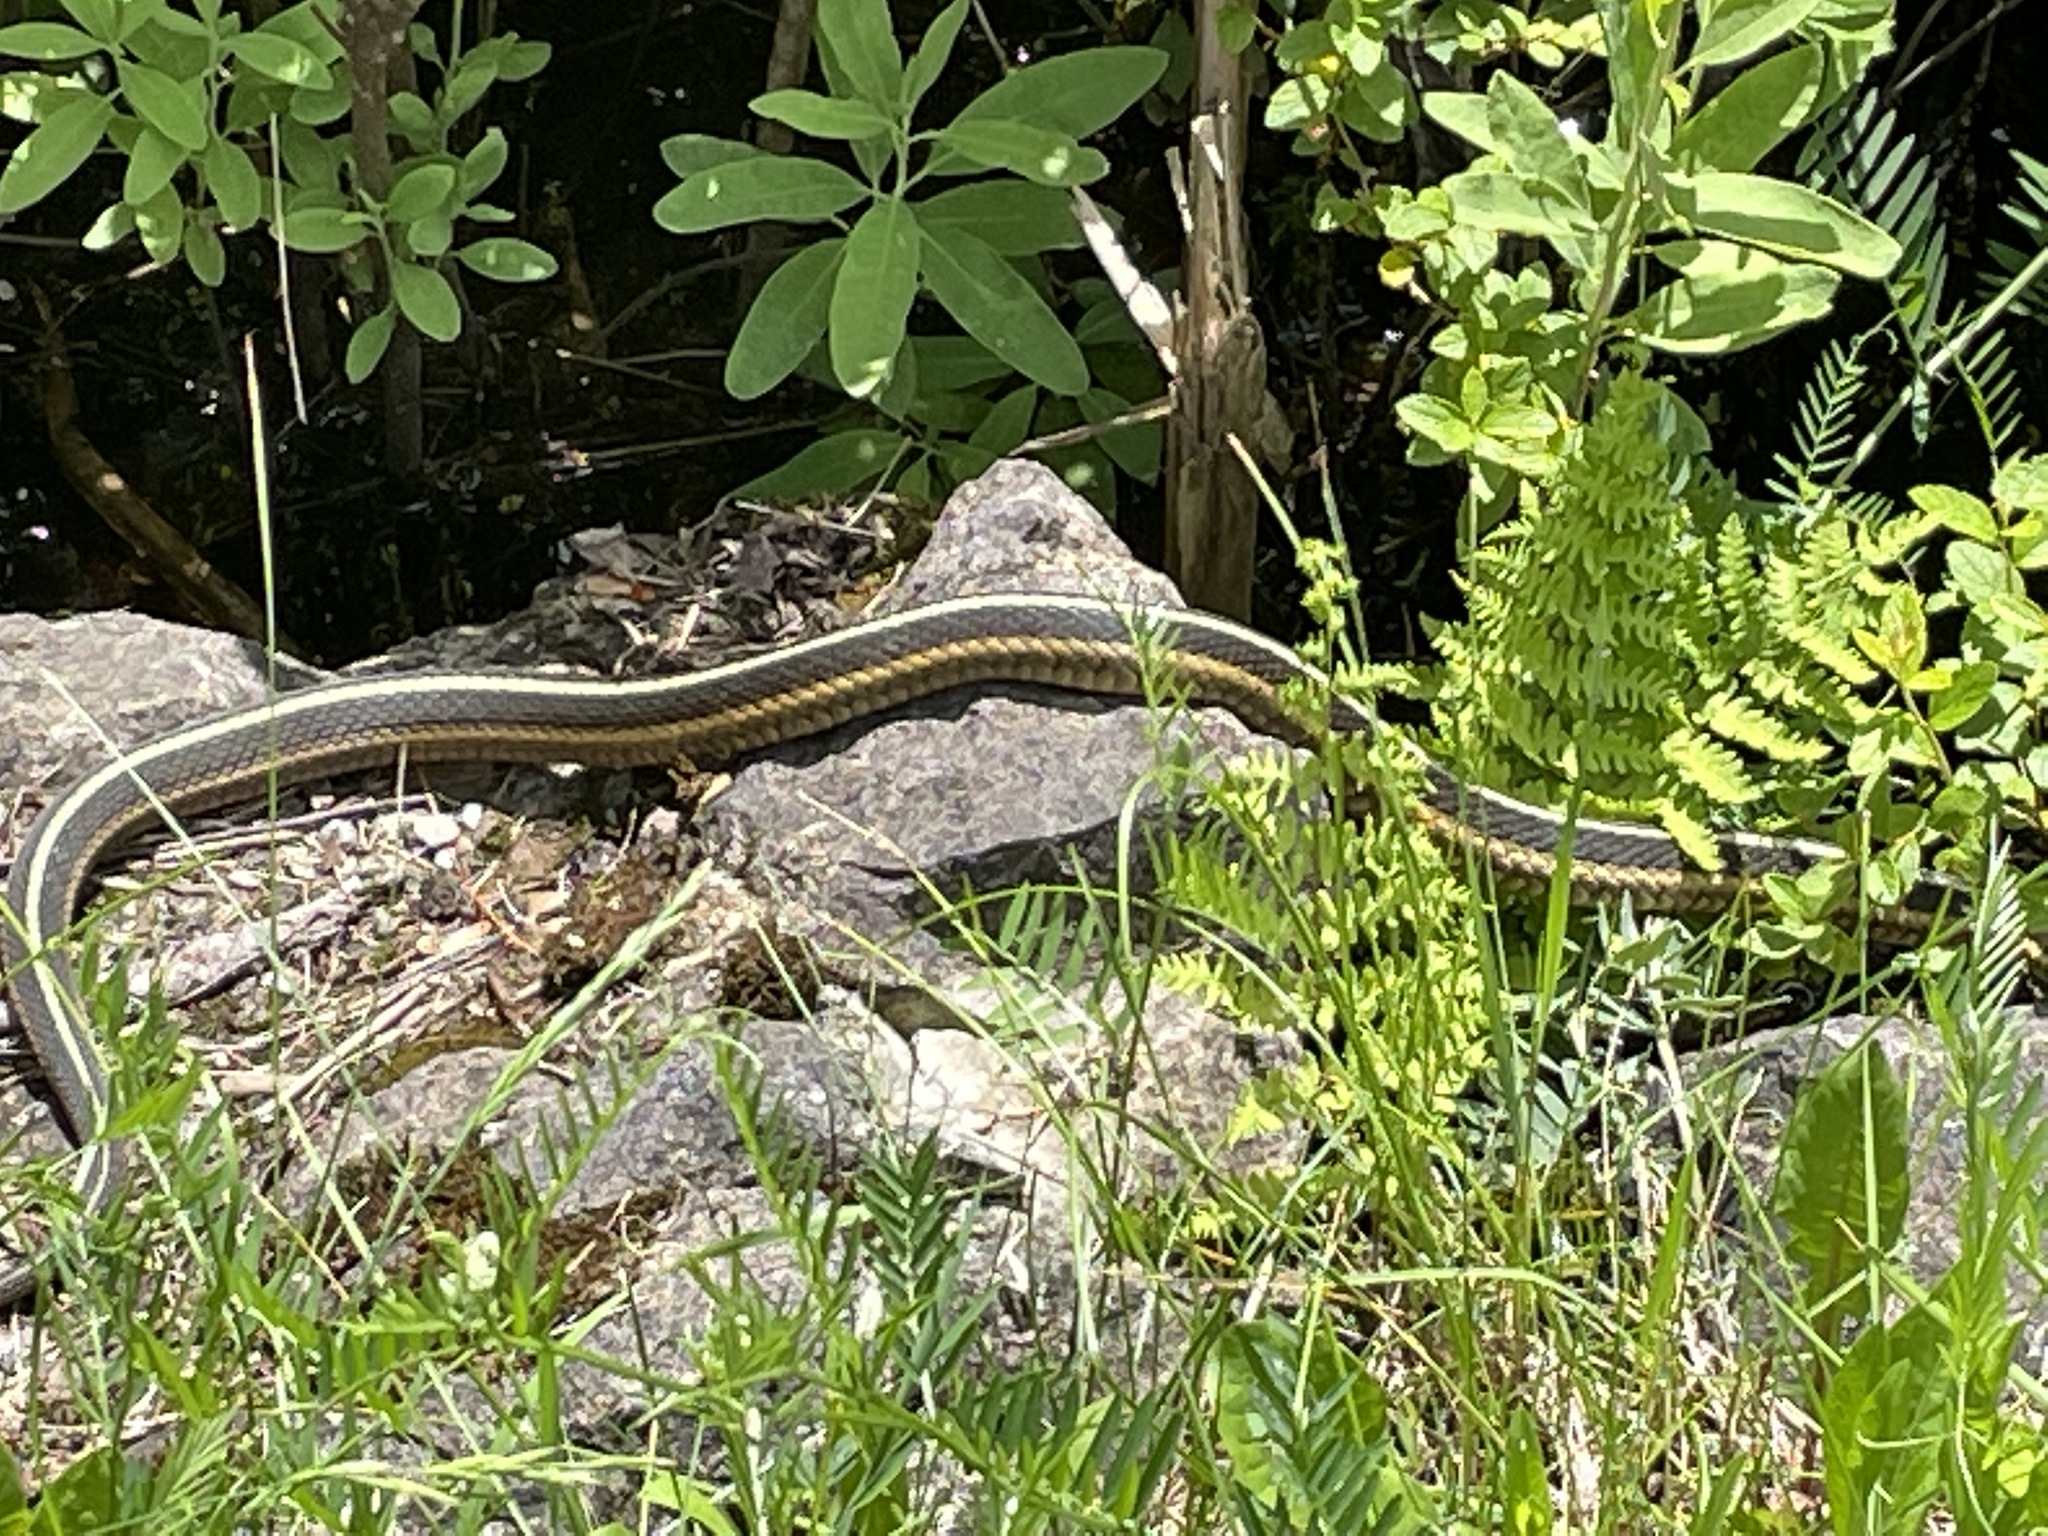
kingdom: Animalia
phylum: Chordata
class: Squamata
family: Colubridae
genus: Thamnophis
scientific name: Thamnophis sirtalis
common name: Common garter snake
